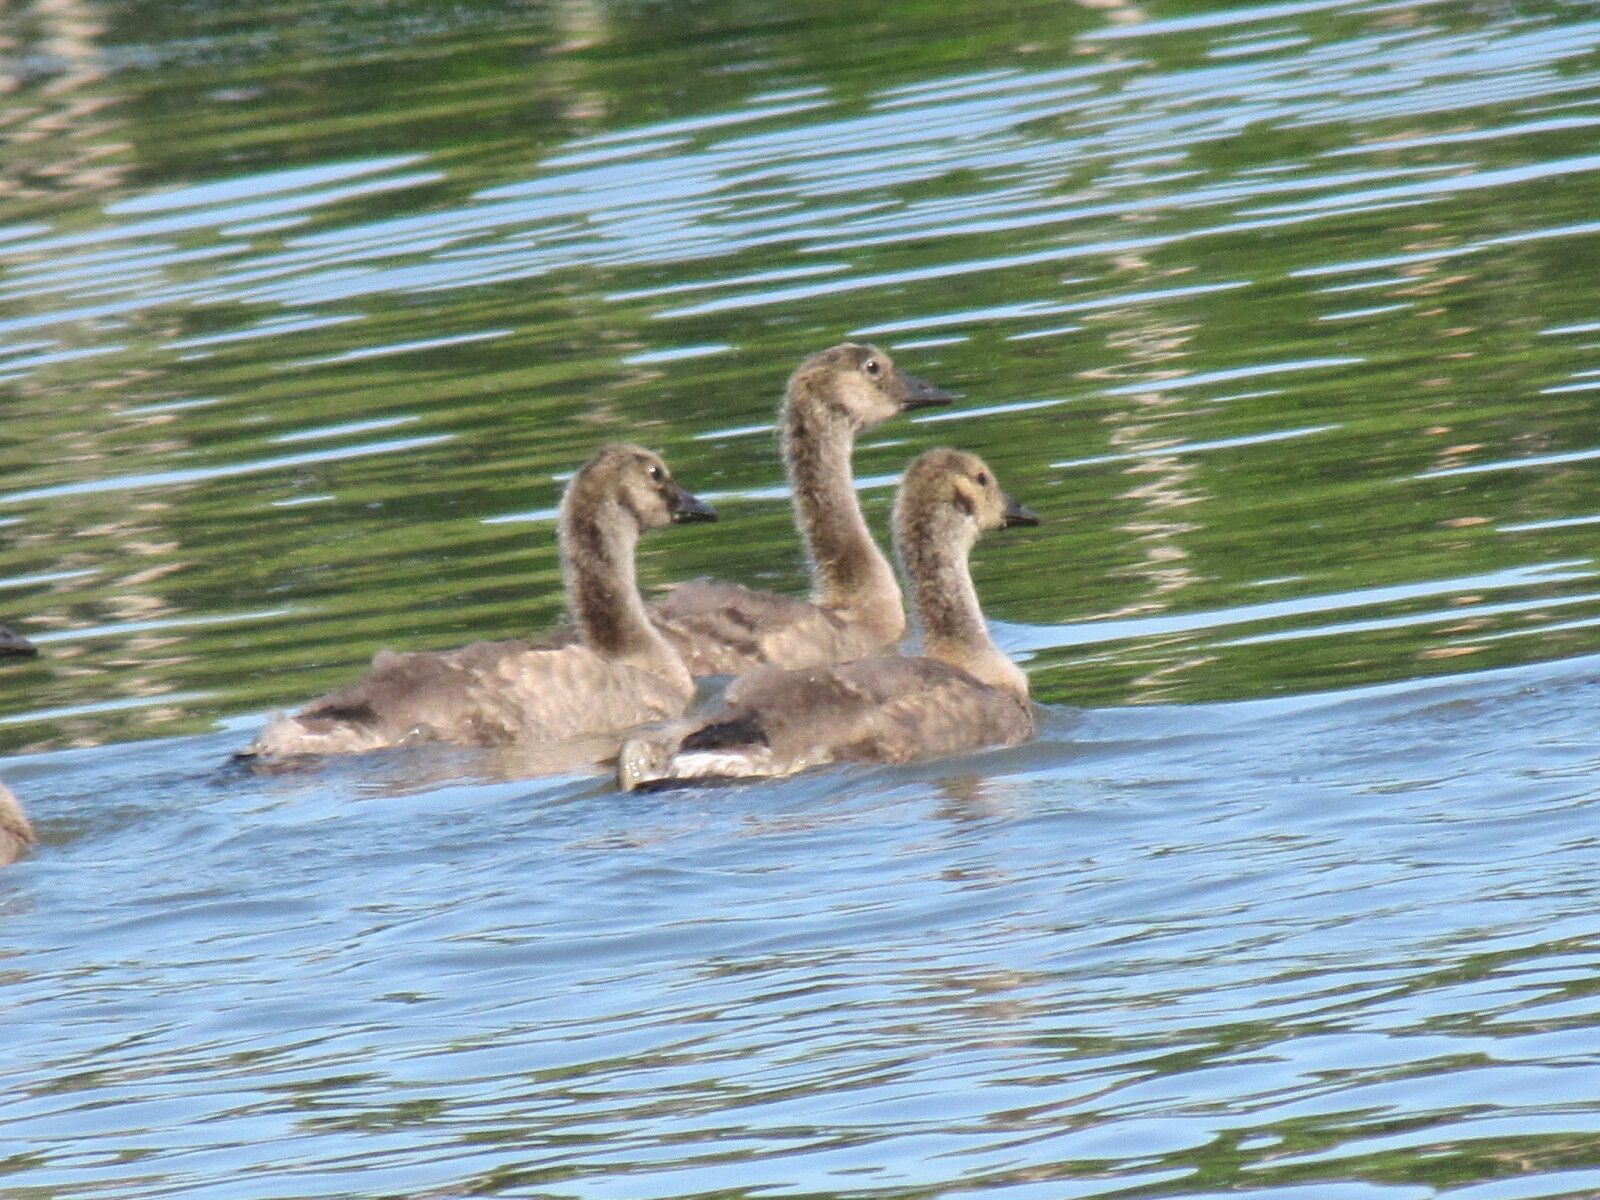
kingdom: Animalia
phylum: Chordata
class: Aves
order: Anseriformes
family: Anatidae
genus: Branta
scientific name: Branta canadensis
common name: Canada goose
